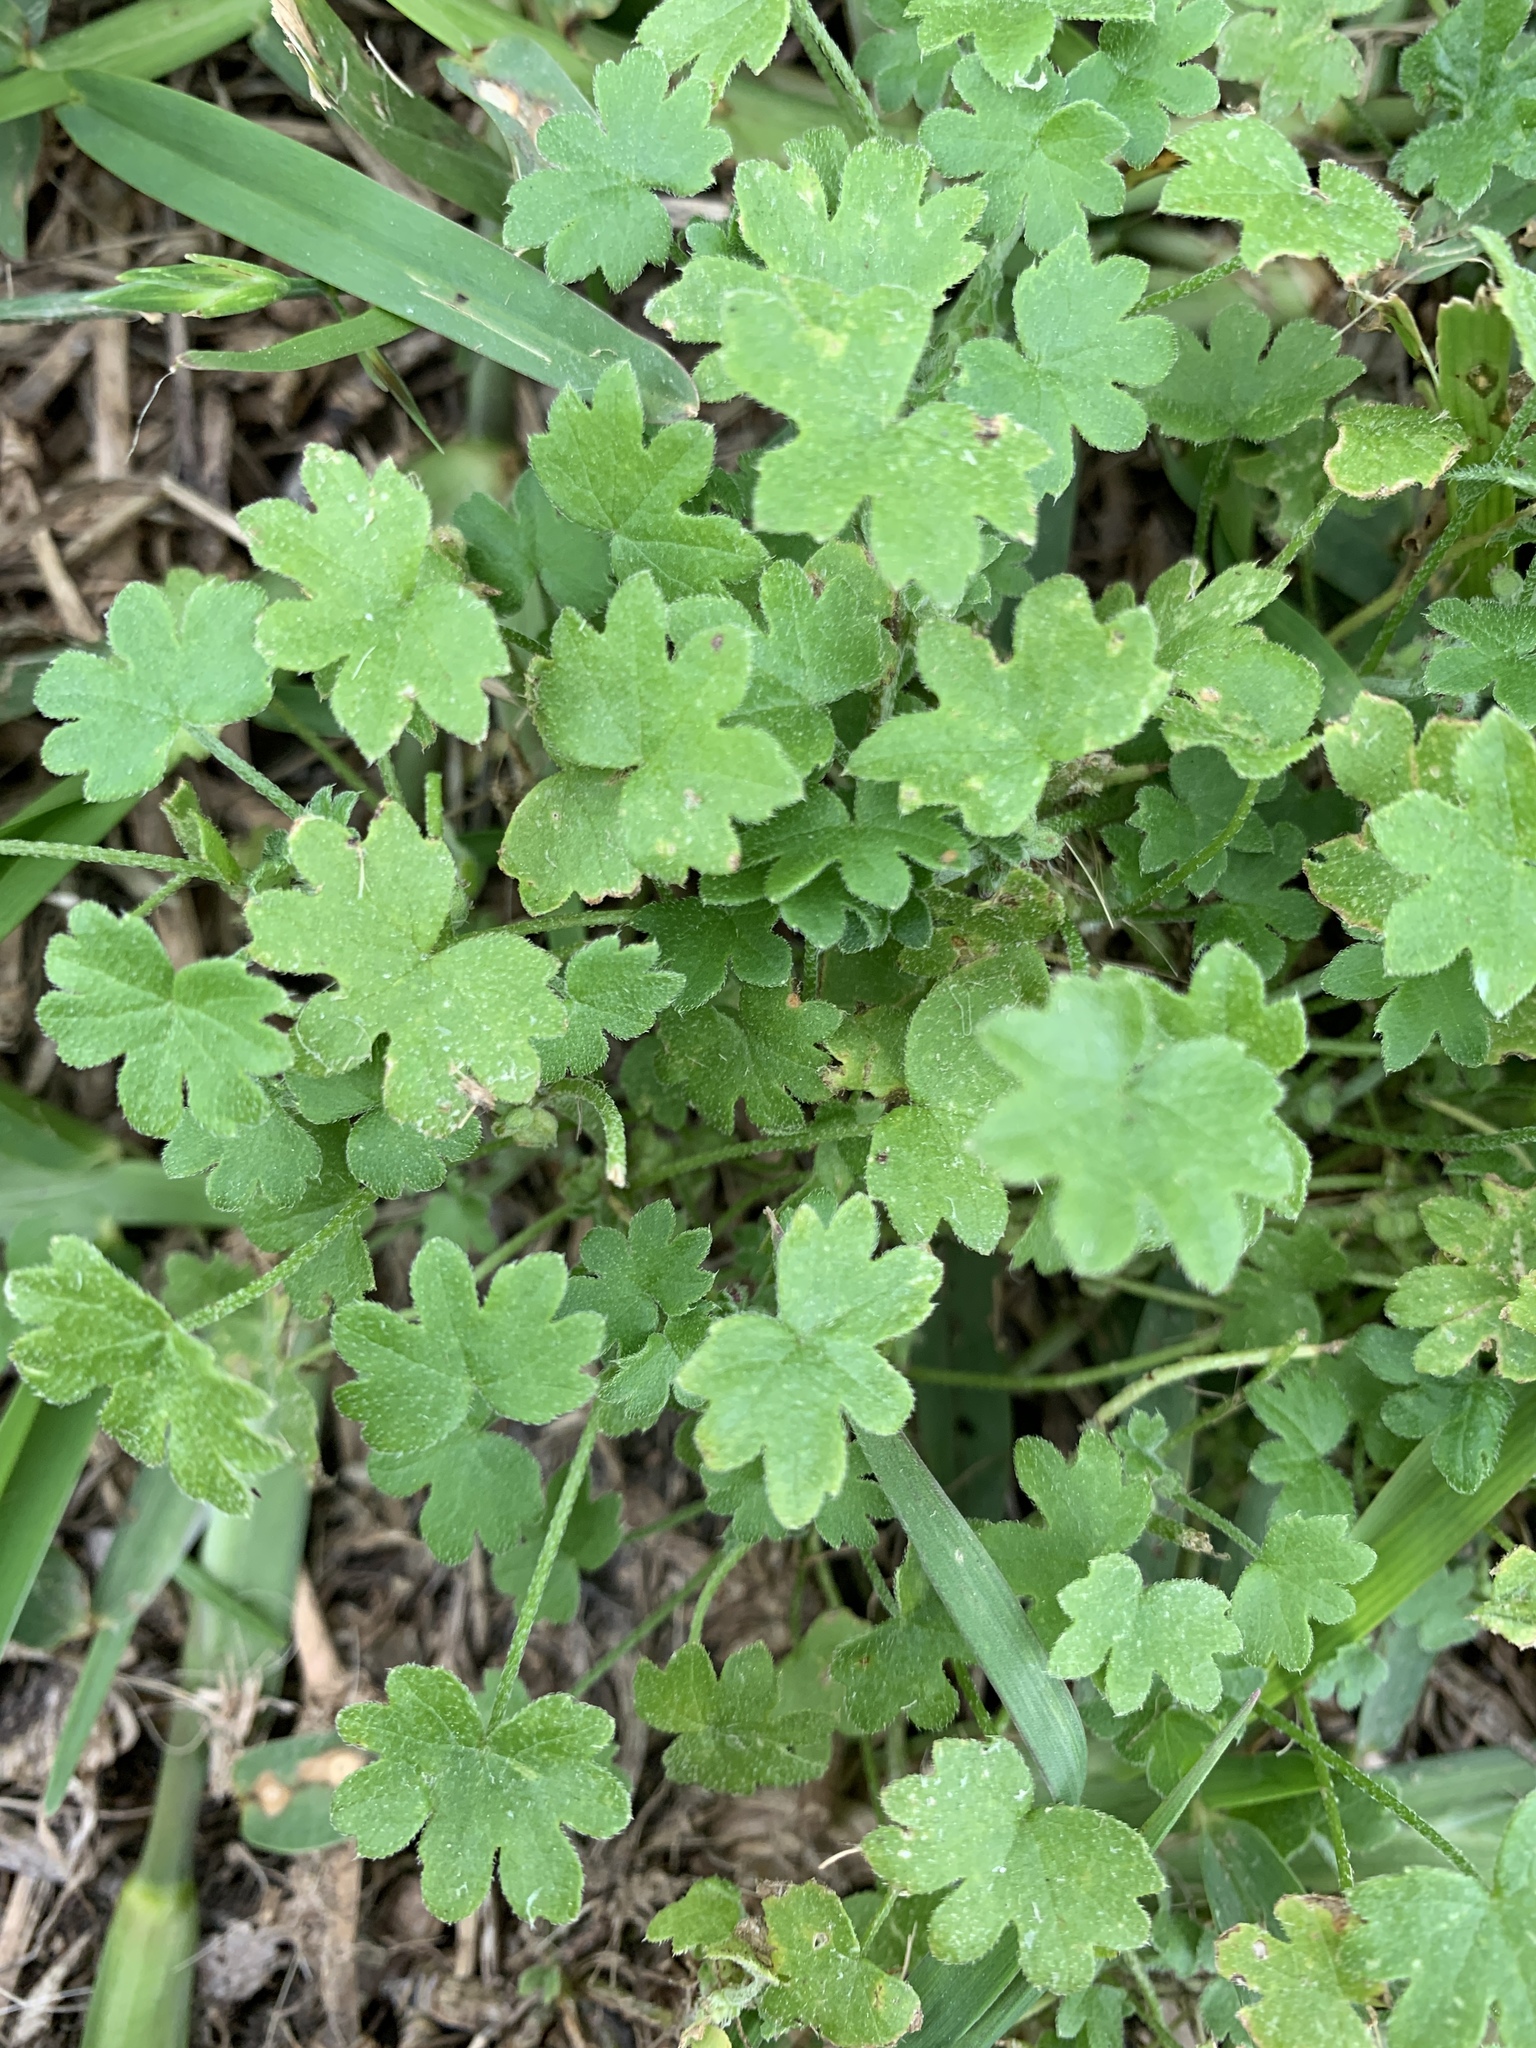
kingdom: Plantae
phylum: Tracheophyta
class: Magnoliopsida
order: Apiales
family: Apiaceae
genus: Bowlesia
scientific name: Bowlesia incana
